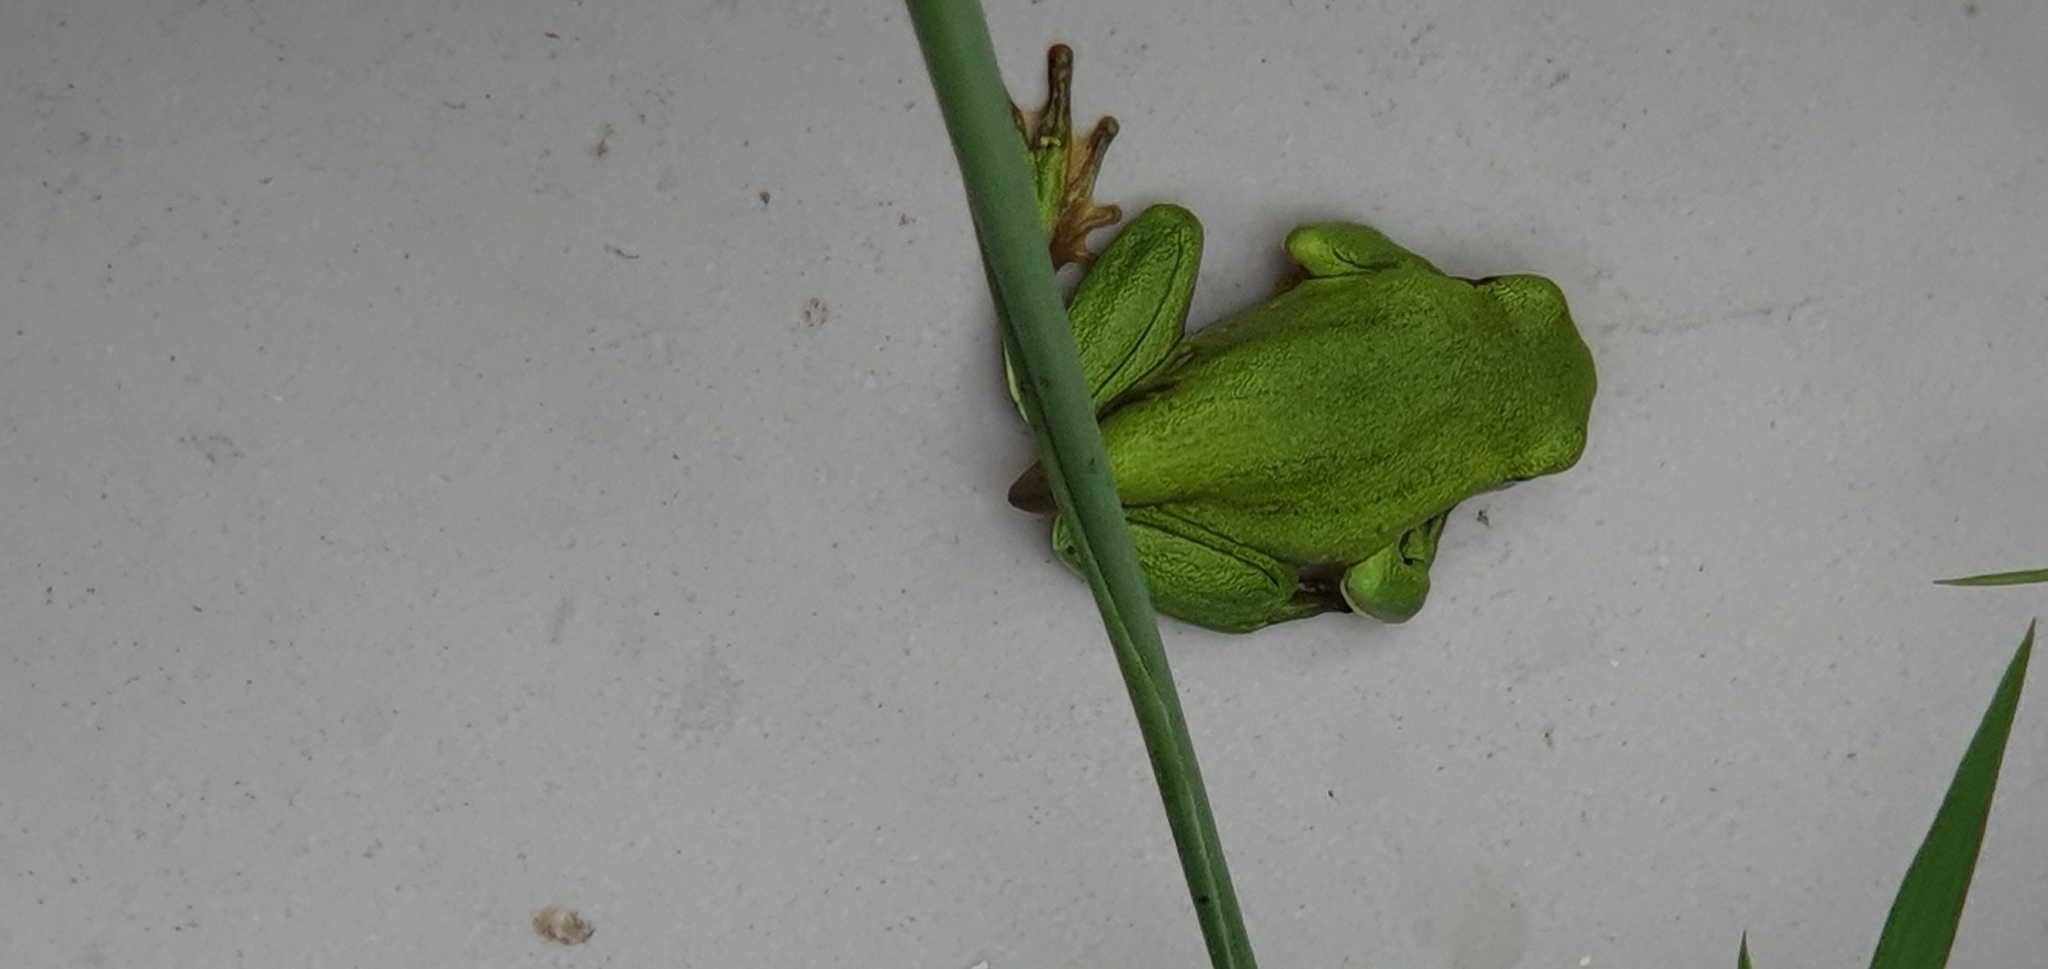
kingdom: Animalia
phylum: Chordata
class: Amphibia
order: Anura
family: Pelodryadidae
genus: Ranoidea
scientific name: Ranoidea caerulea
